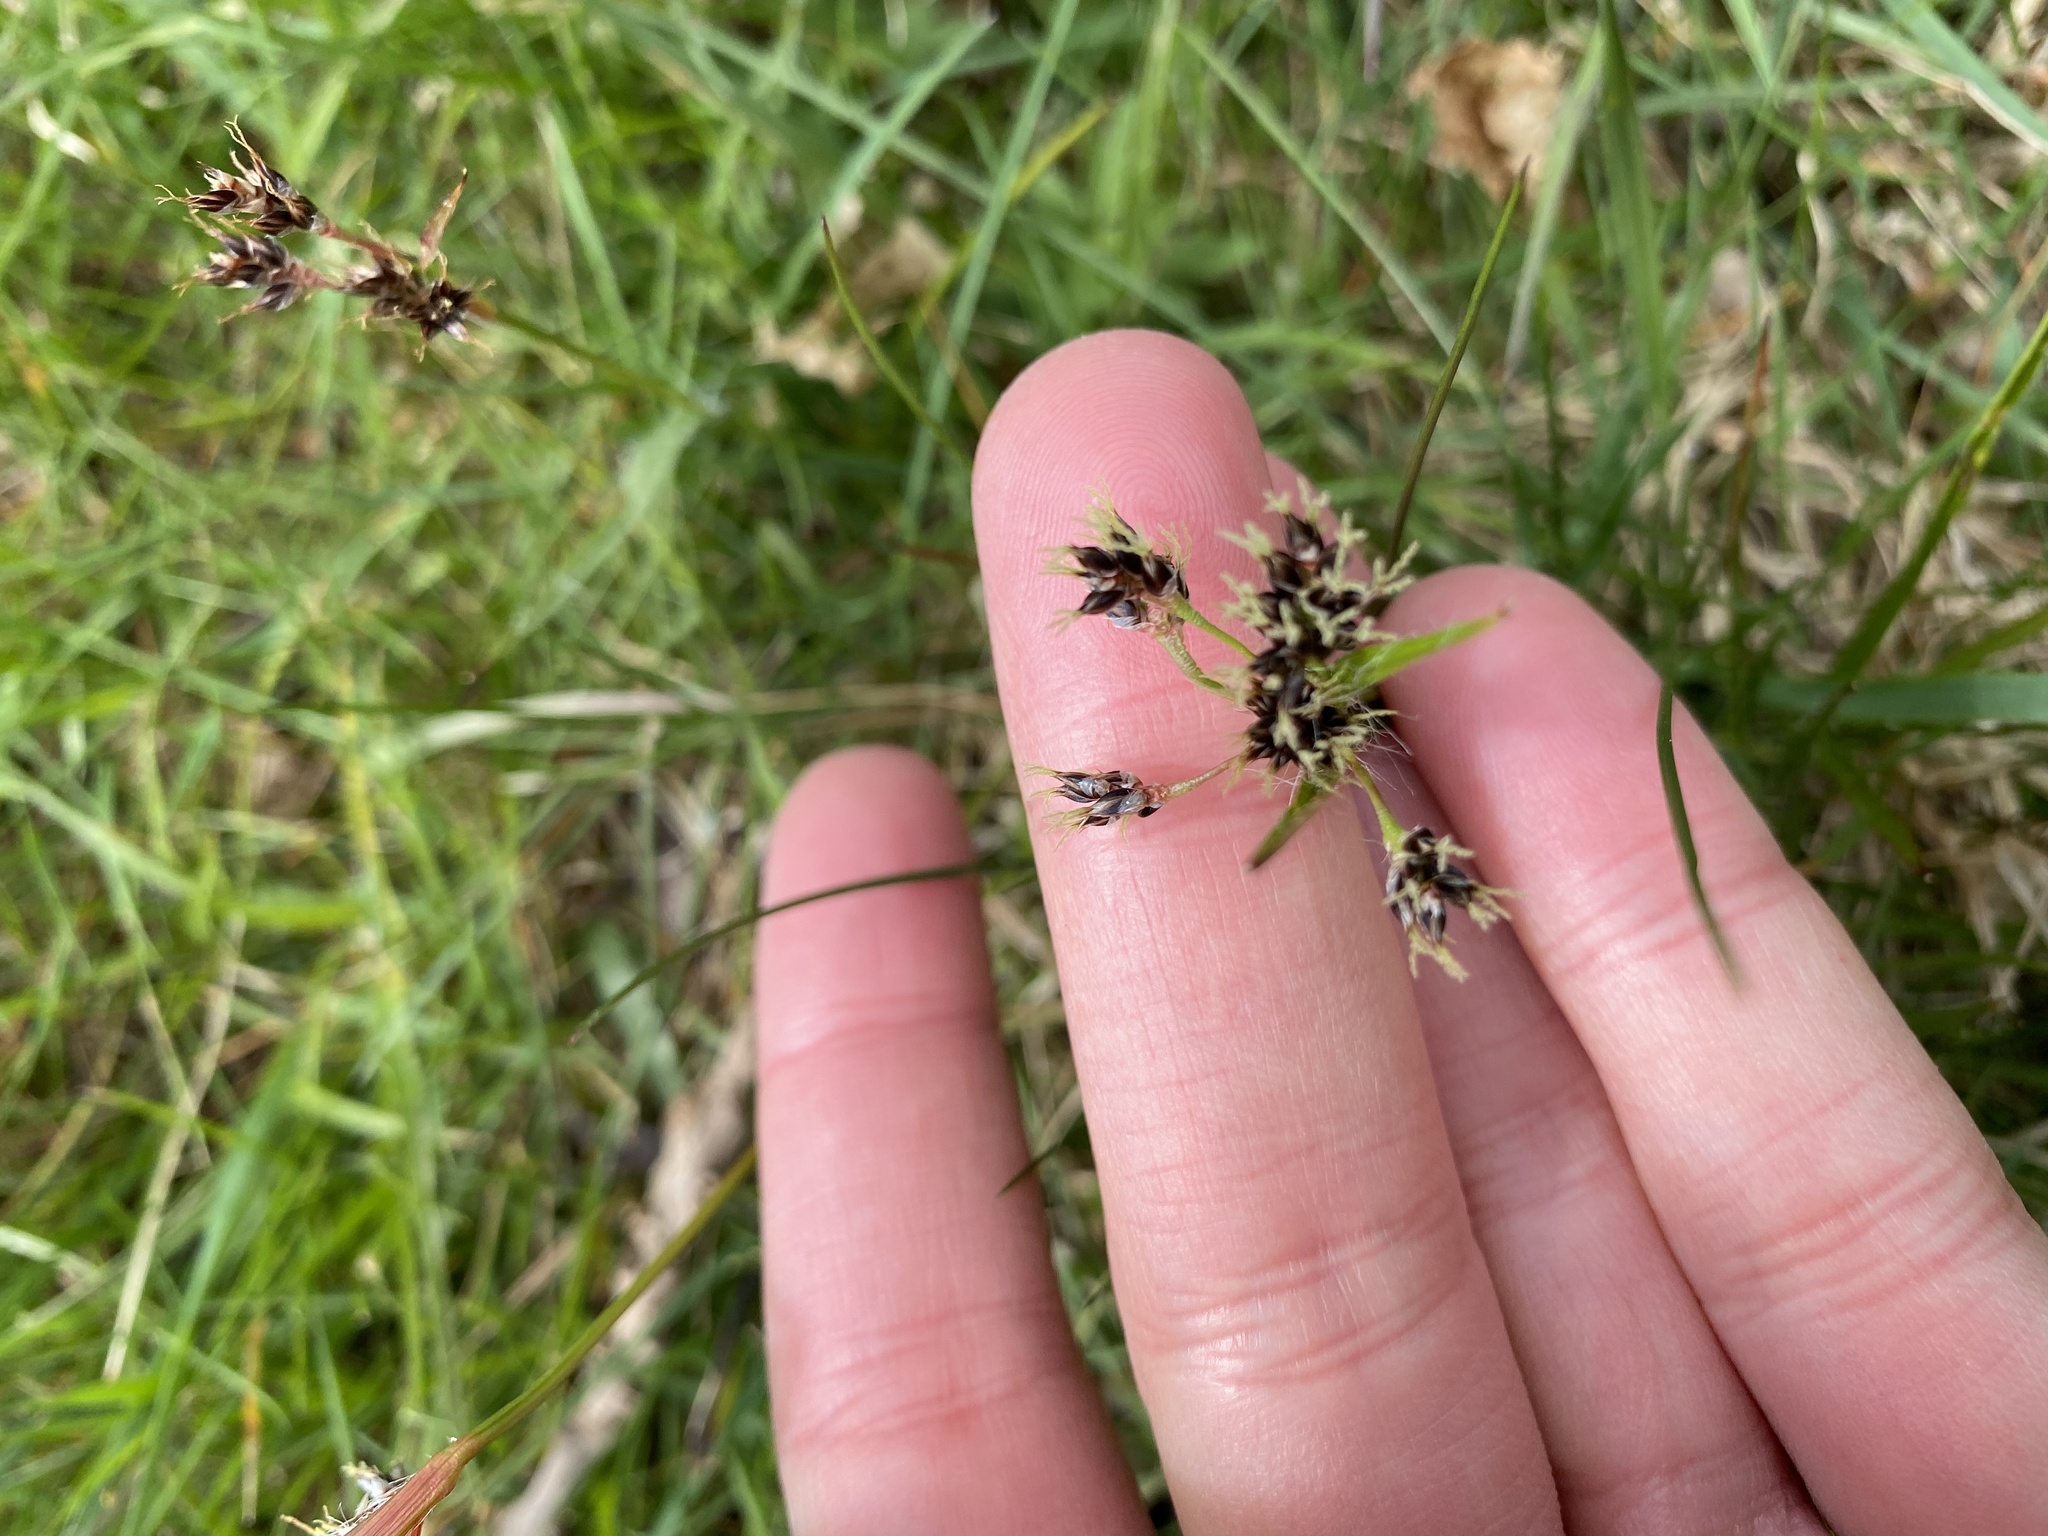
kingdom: Plantae
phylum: Tracheophyta
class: Liliopsida
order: Poales
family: Juncaceae
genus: Luzula
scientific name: Luzula campestris
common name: Field wood-rush
